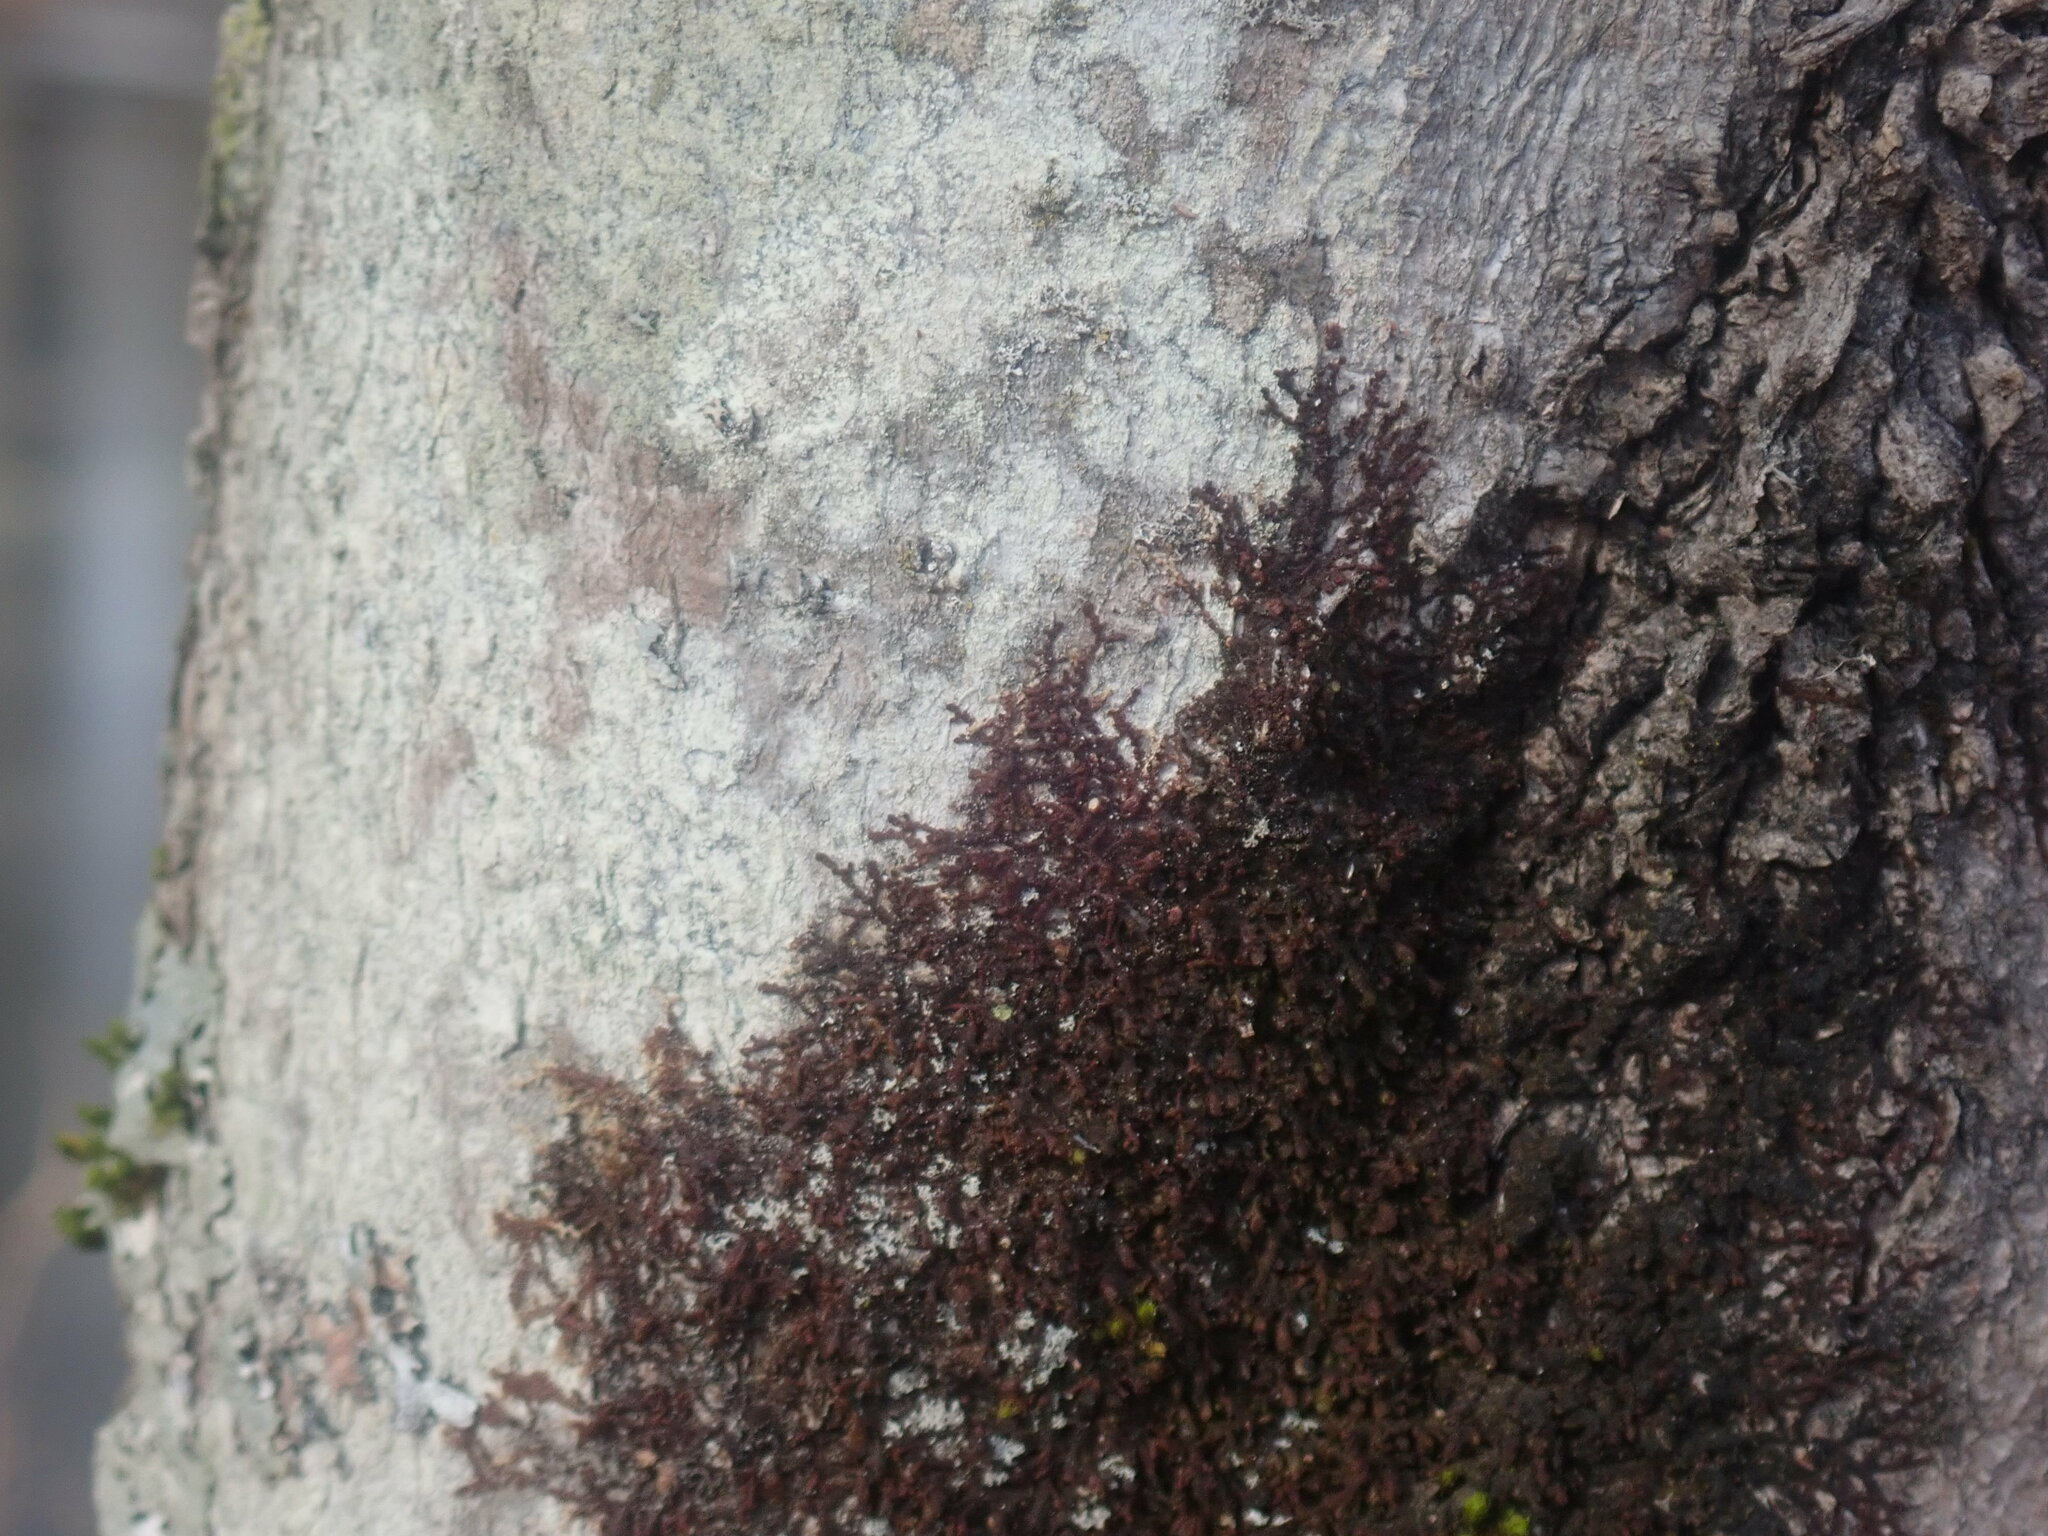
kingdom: Plantae
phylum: Marchantiophyta
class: Jungermanniopsida
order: Porellales
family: Frullaniaceae
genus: Frullania
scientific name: Frullania
